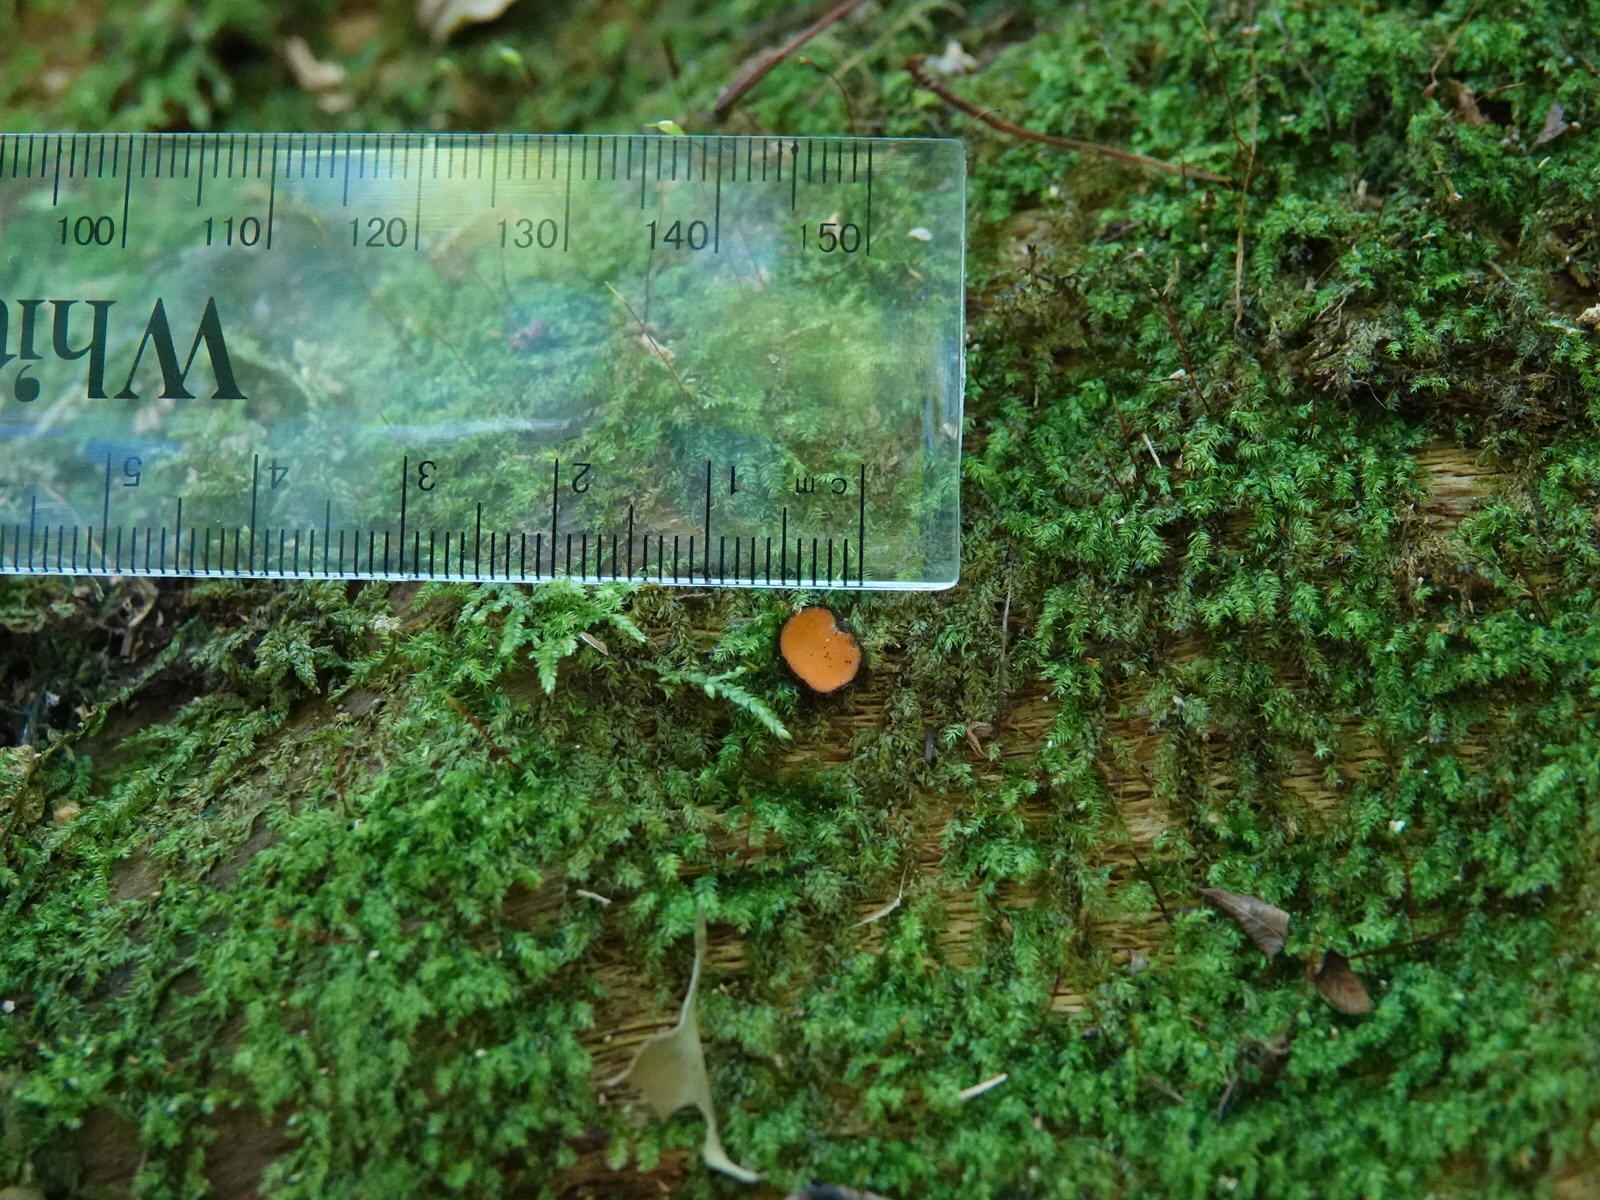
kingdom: Fungi
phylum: Ascomycota
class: Pezizomycetes
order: Pezizales
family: Pyronemataceae
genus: Scutellinia
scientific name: Scutellinia
